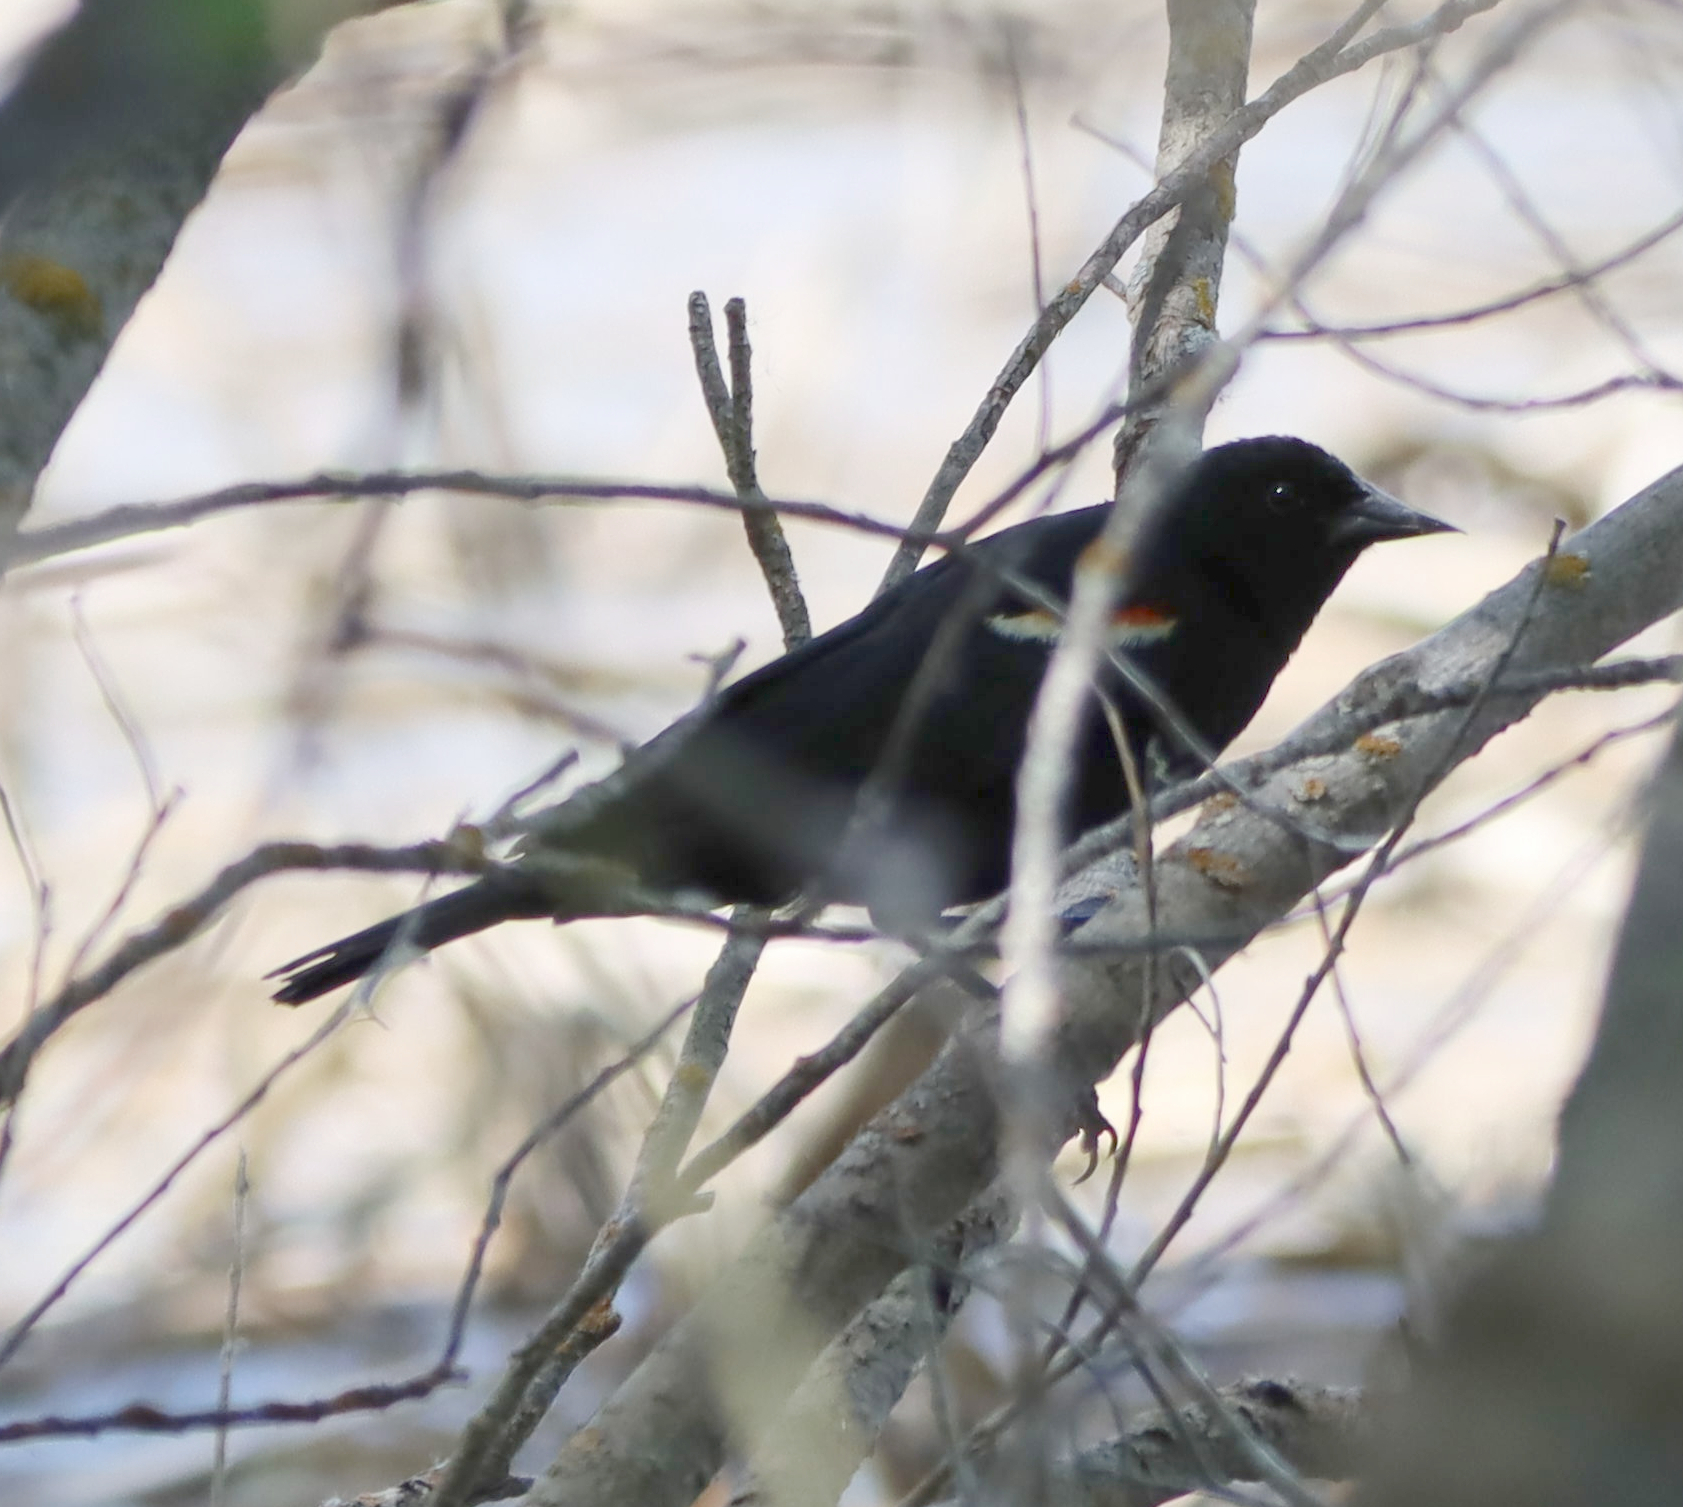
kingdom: Animalia
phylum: Chordata
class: Aves
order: Passeriformes
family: Icteridae
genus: Agelaius
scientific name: Agelaius phoeniceus
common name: Red-winged blackbird
